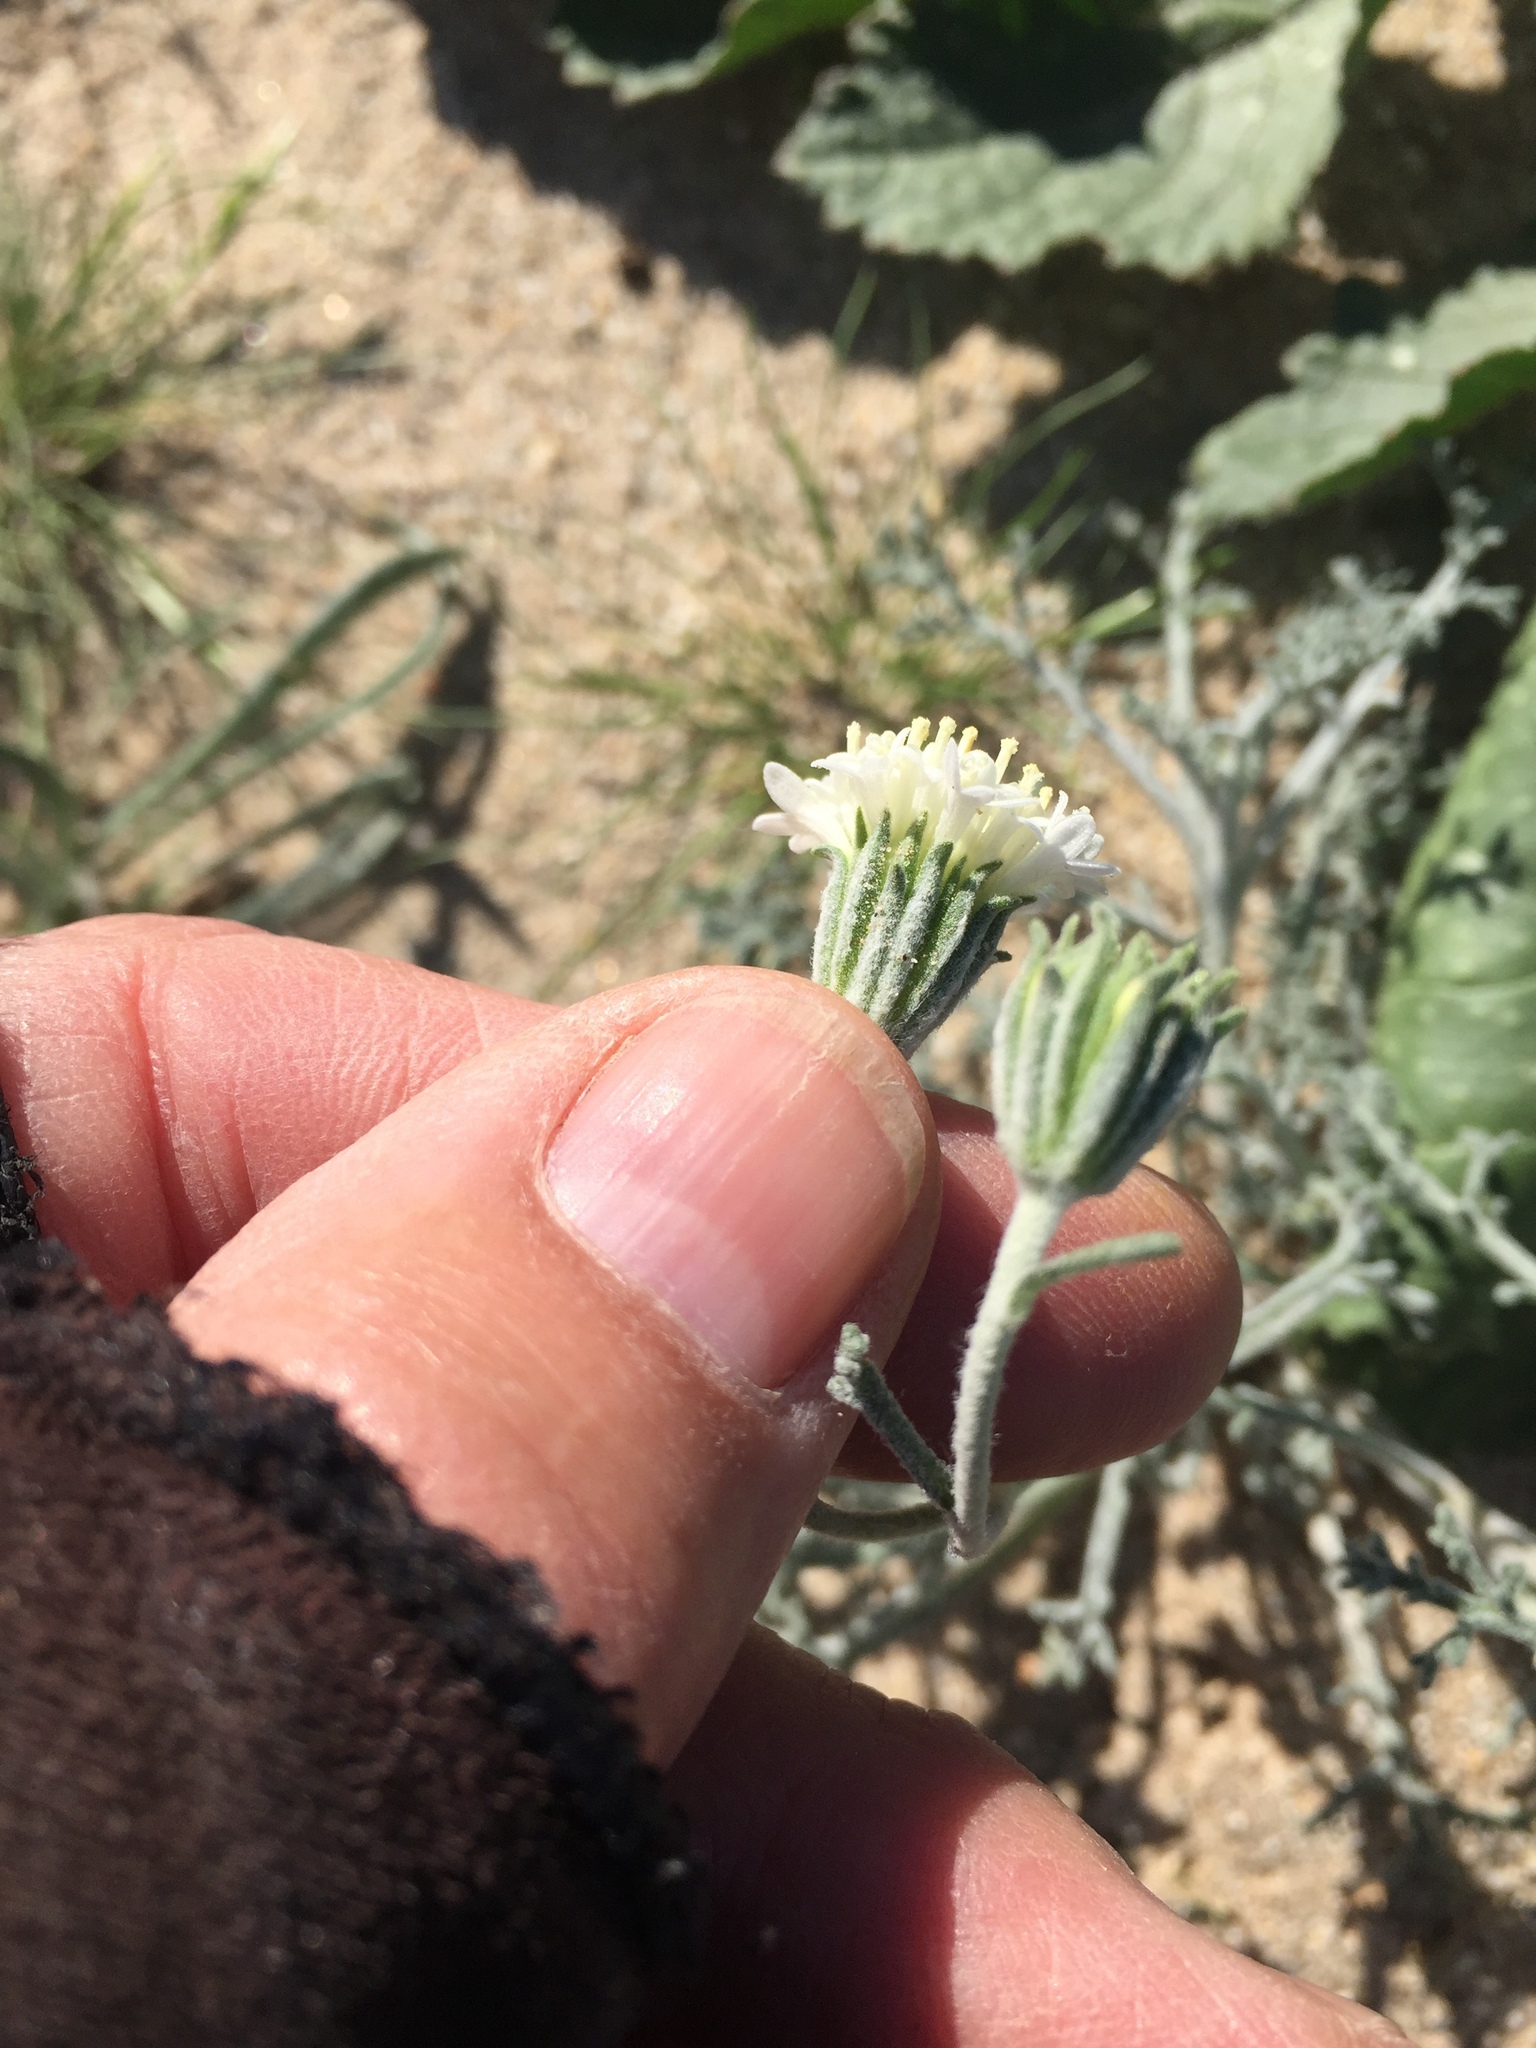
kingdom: Plantae
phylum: Tracheophyta
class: Magnoliopsida
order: Asterales
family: Asteraceae
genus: Chaenactis
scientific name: Chaenactis stevioides
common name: Desert pincushion
